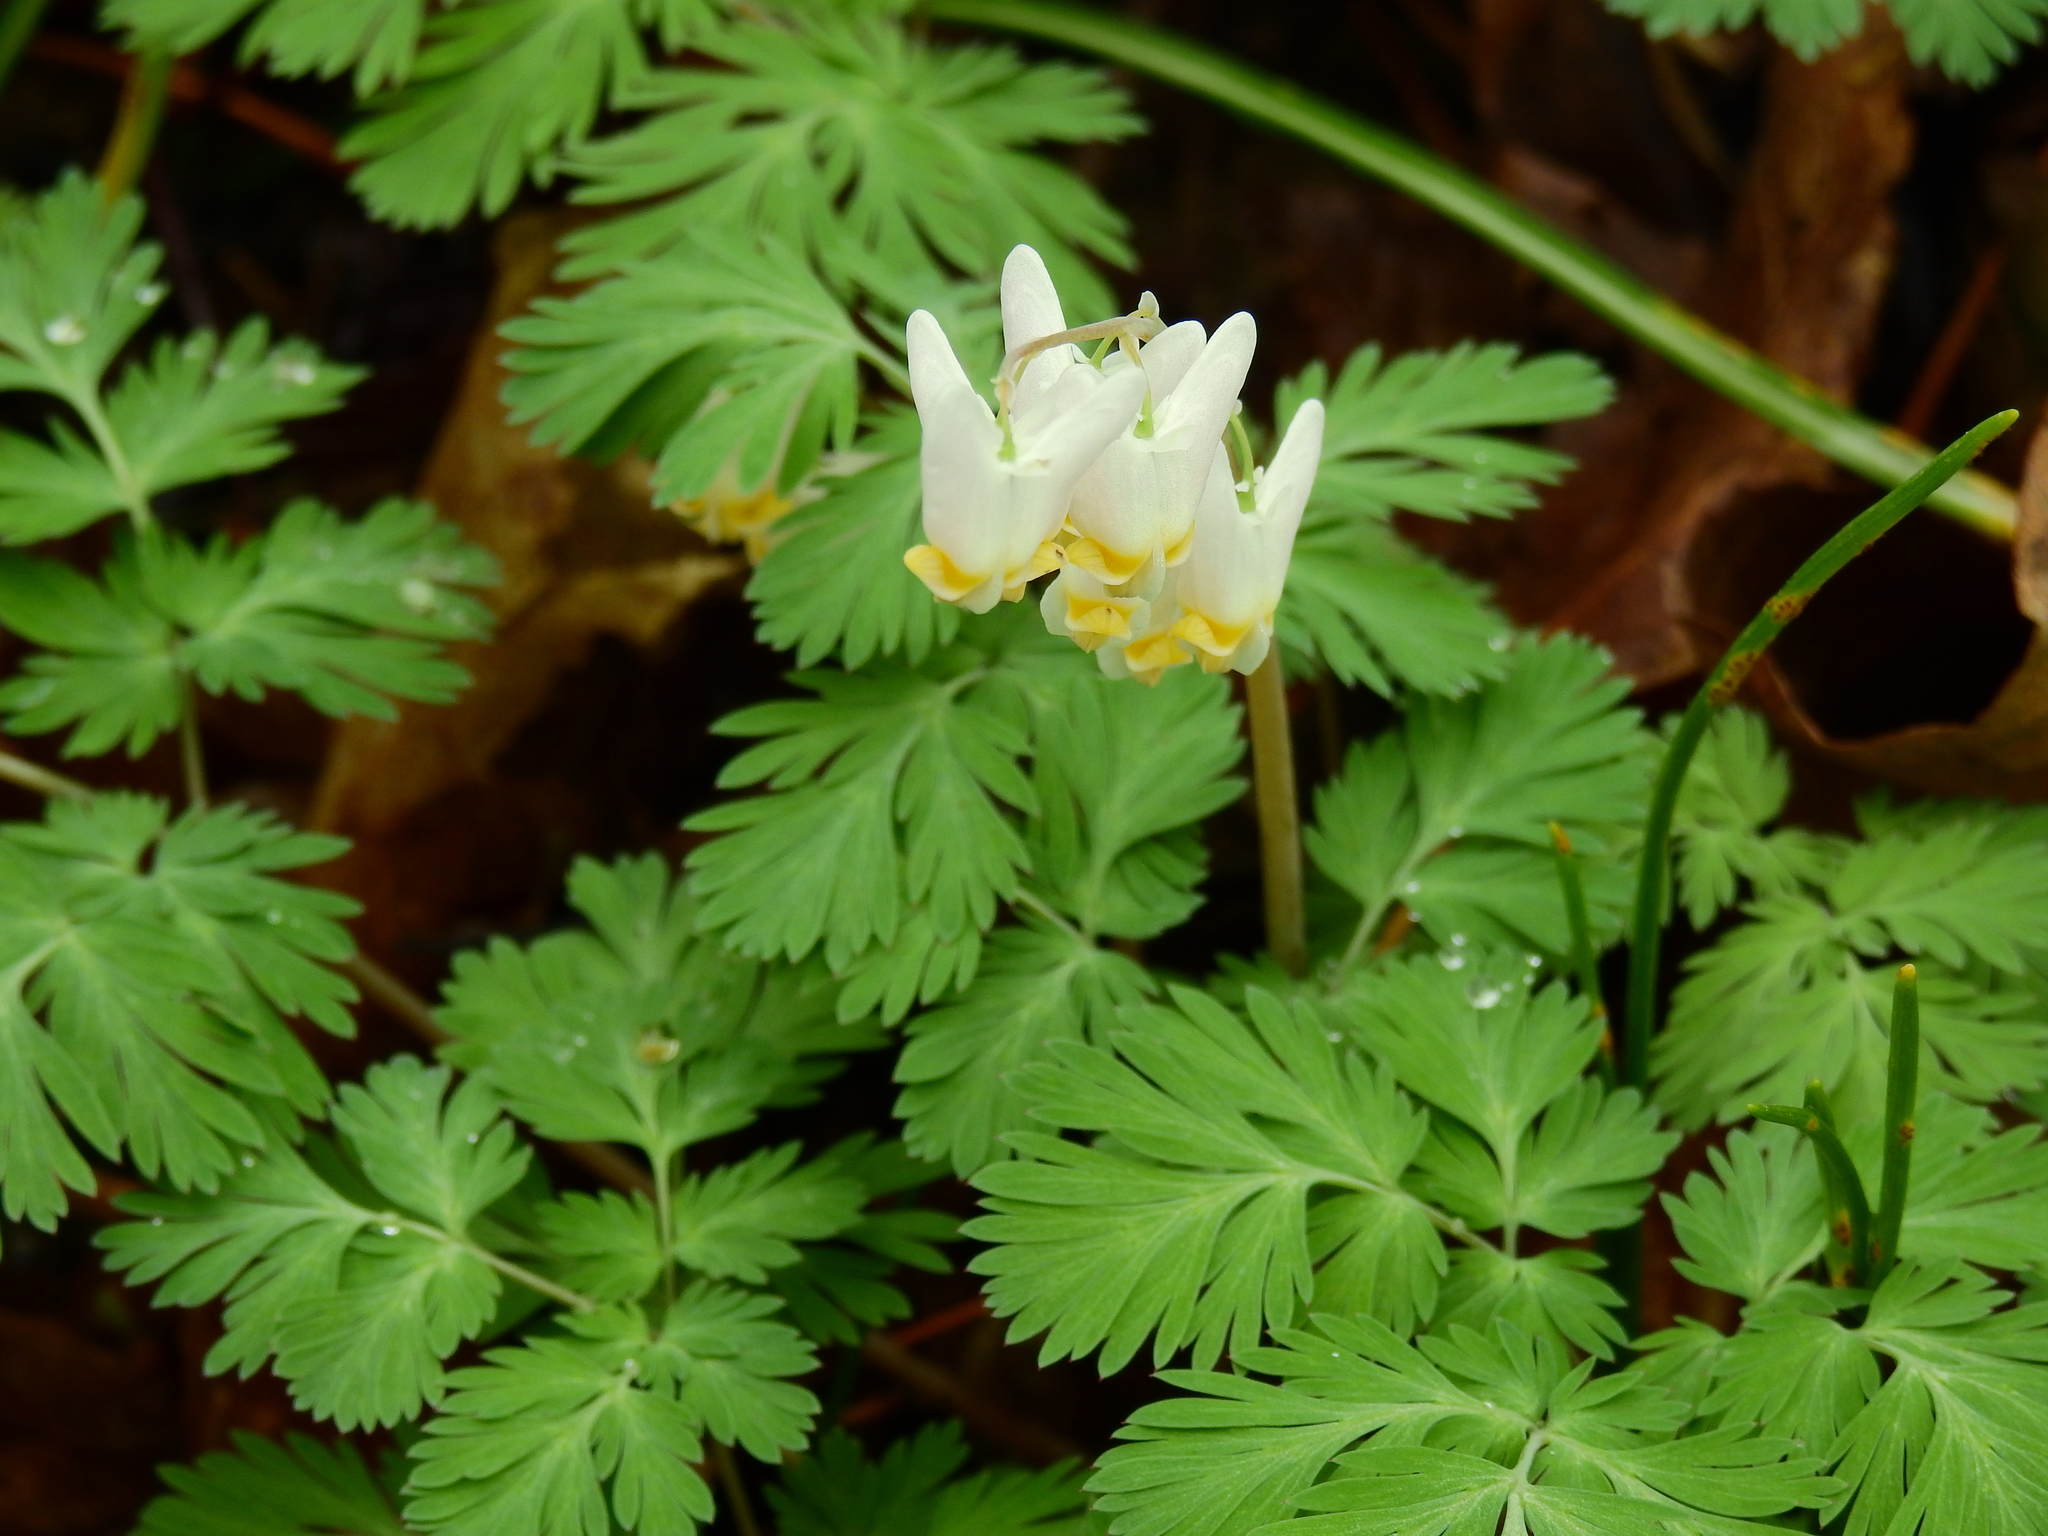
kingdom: Plantae
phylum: Tracheophyta
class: Magnoliopsida
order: Ranunculales
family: Papaveraceae
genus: Dicentra
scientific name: Dicentra cucullaria
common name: Dutchman's breeches
